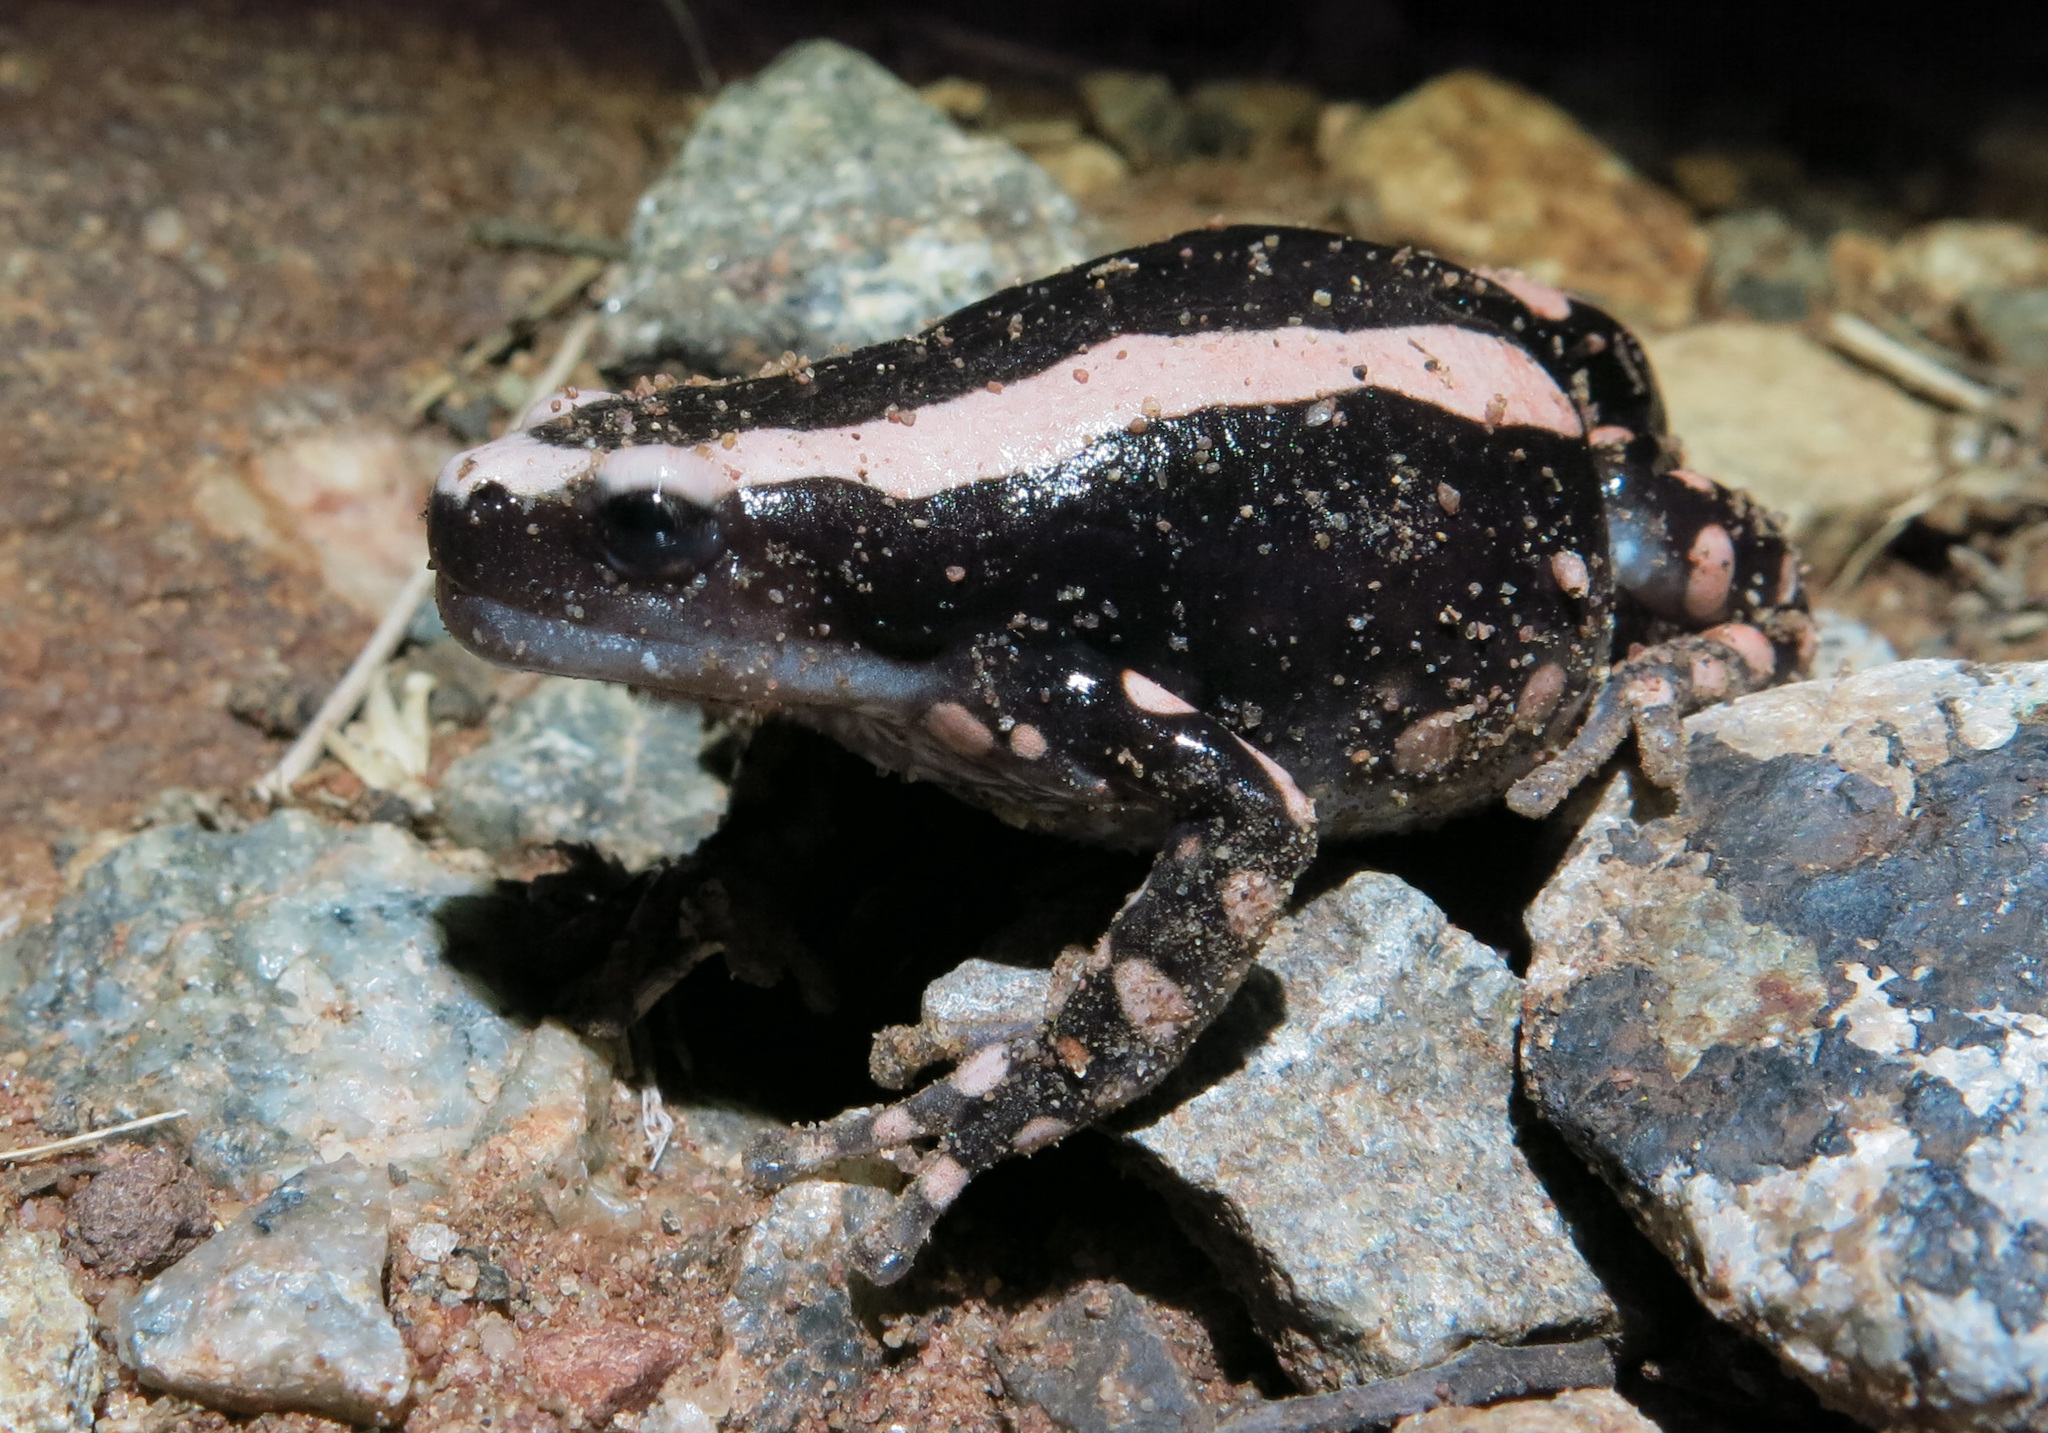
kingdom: Animalia
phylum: Chordata
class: Amphibia
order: Anura
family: Microhylidae
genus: Phrynomantis
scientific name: Phrynomantis bifasciatus
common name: Banded rubber frog
